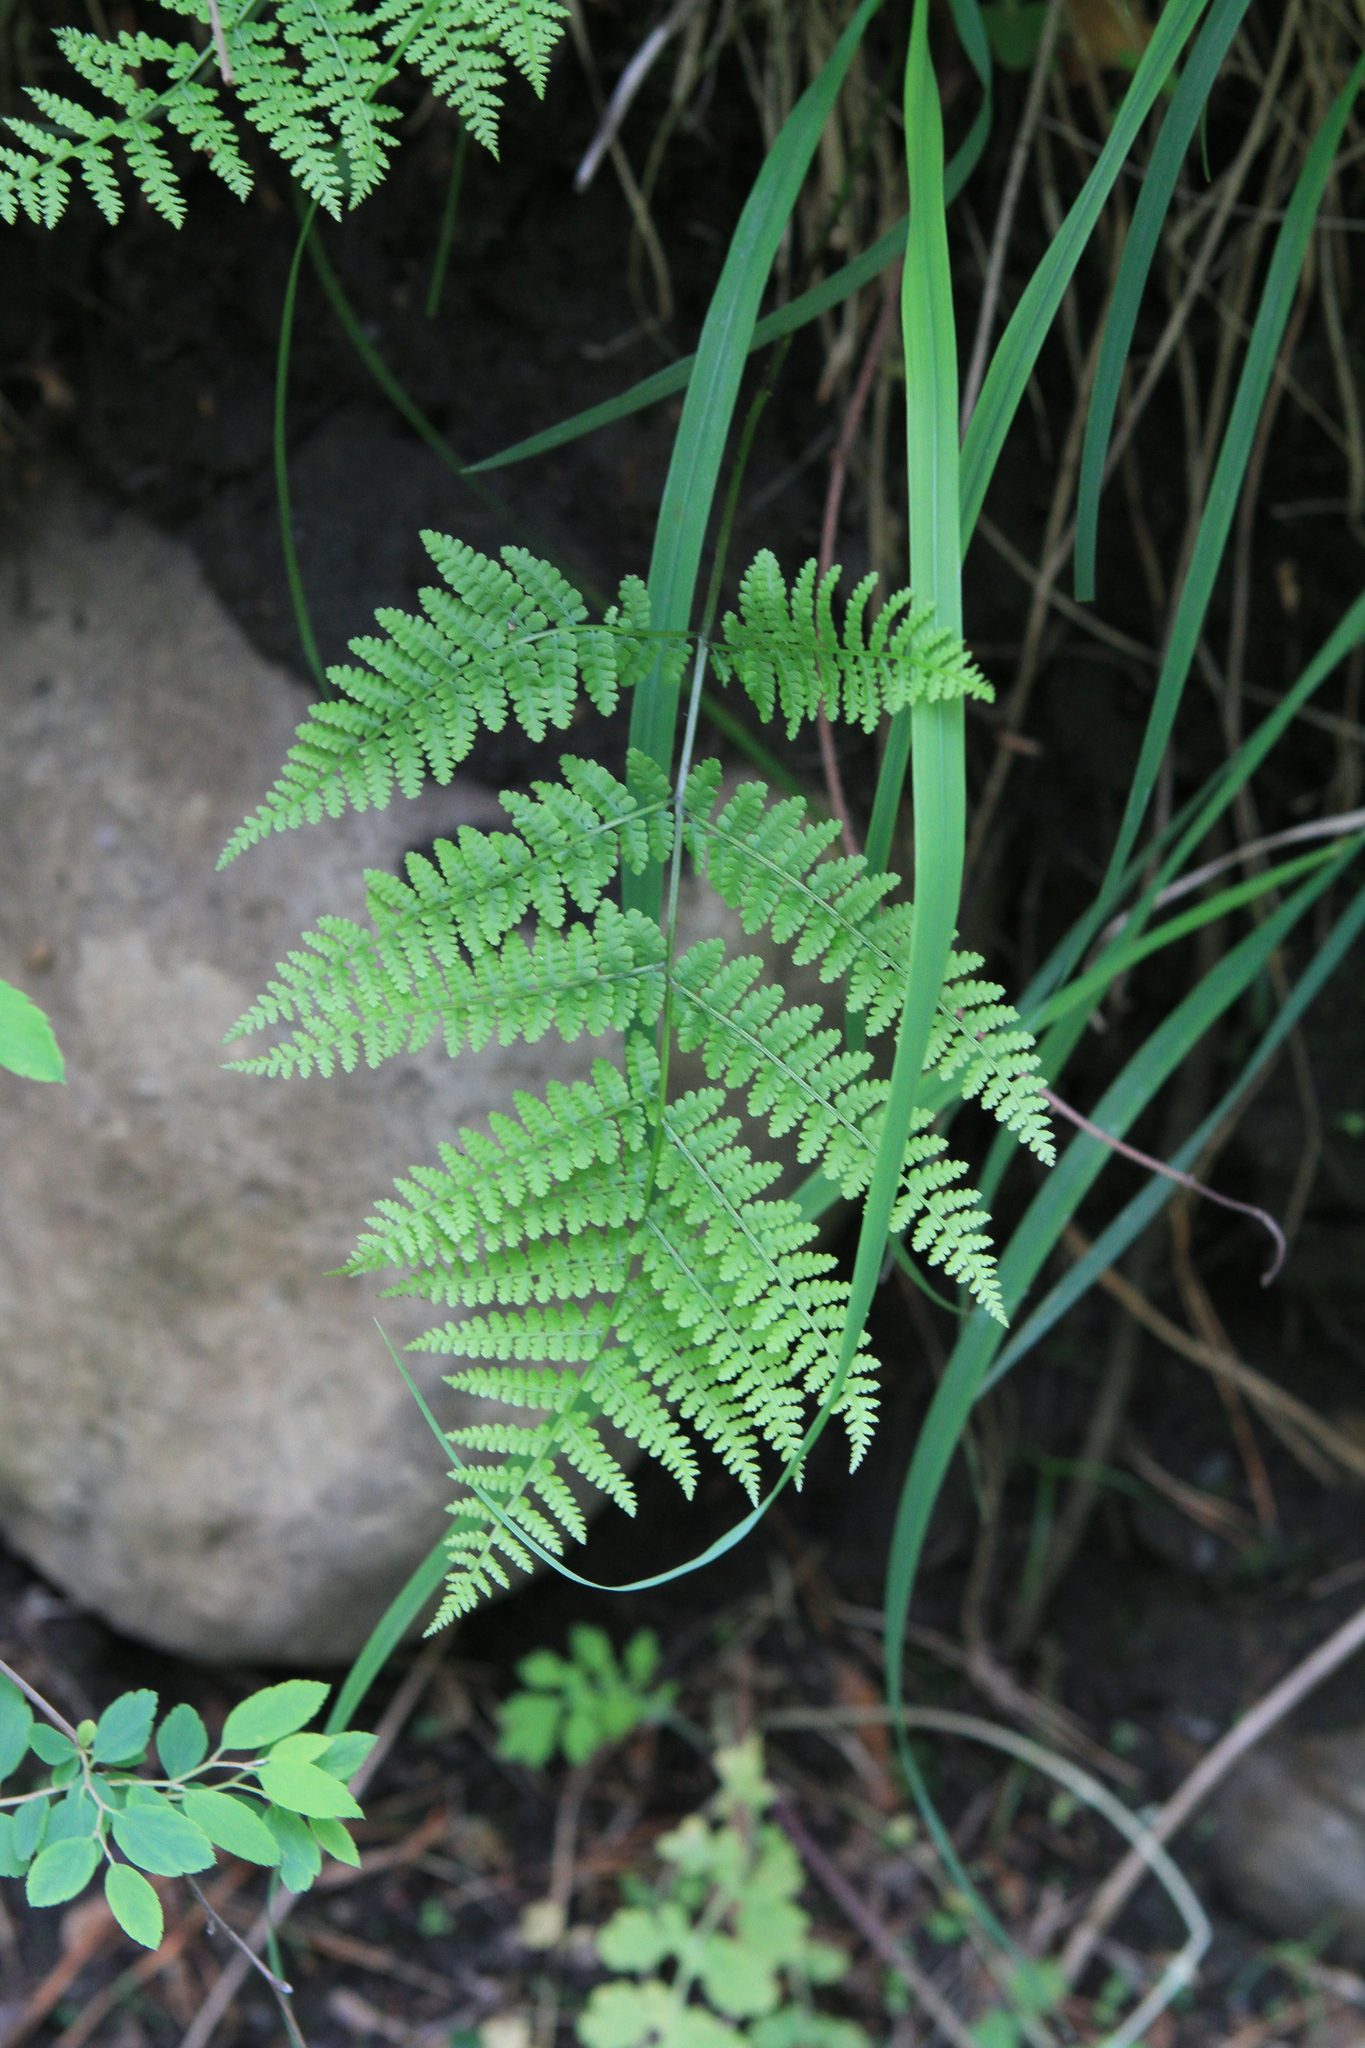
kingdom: Plantae
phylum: Tracheophyta
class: Polypodiopsida
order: Polypodiales
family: Athyriaceae
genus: Diplazium
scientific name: Diplazium sibiricum
